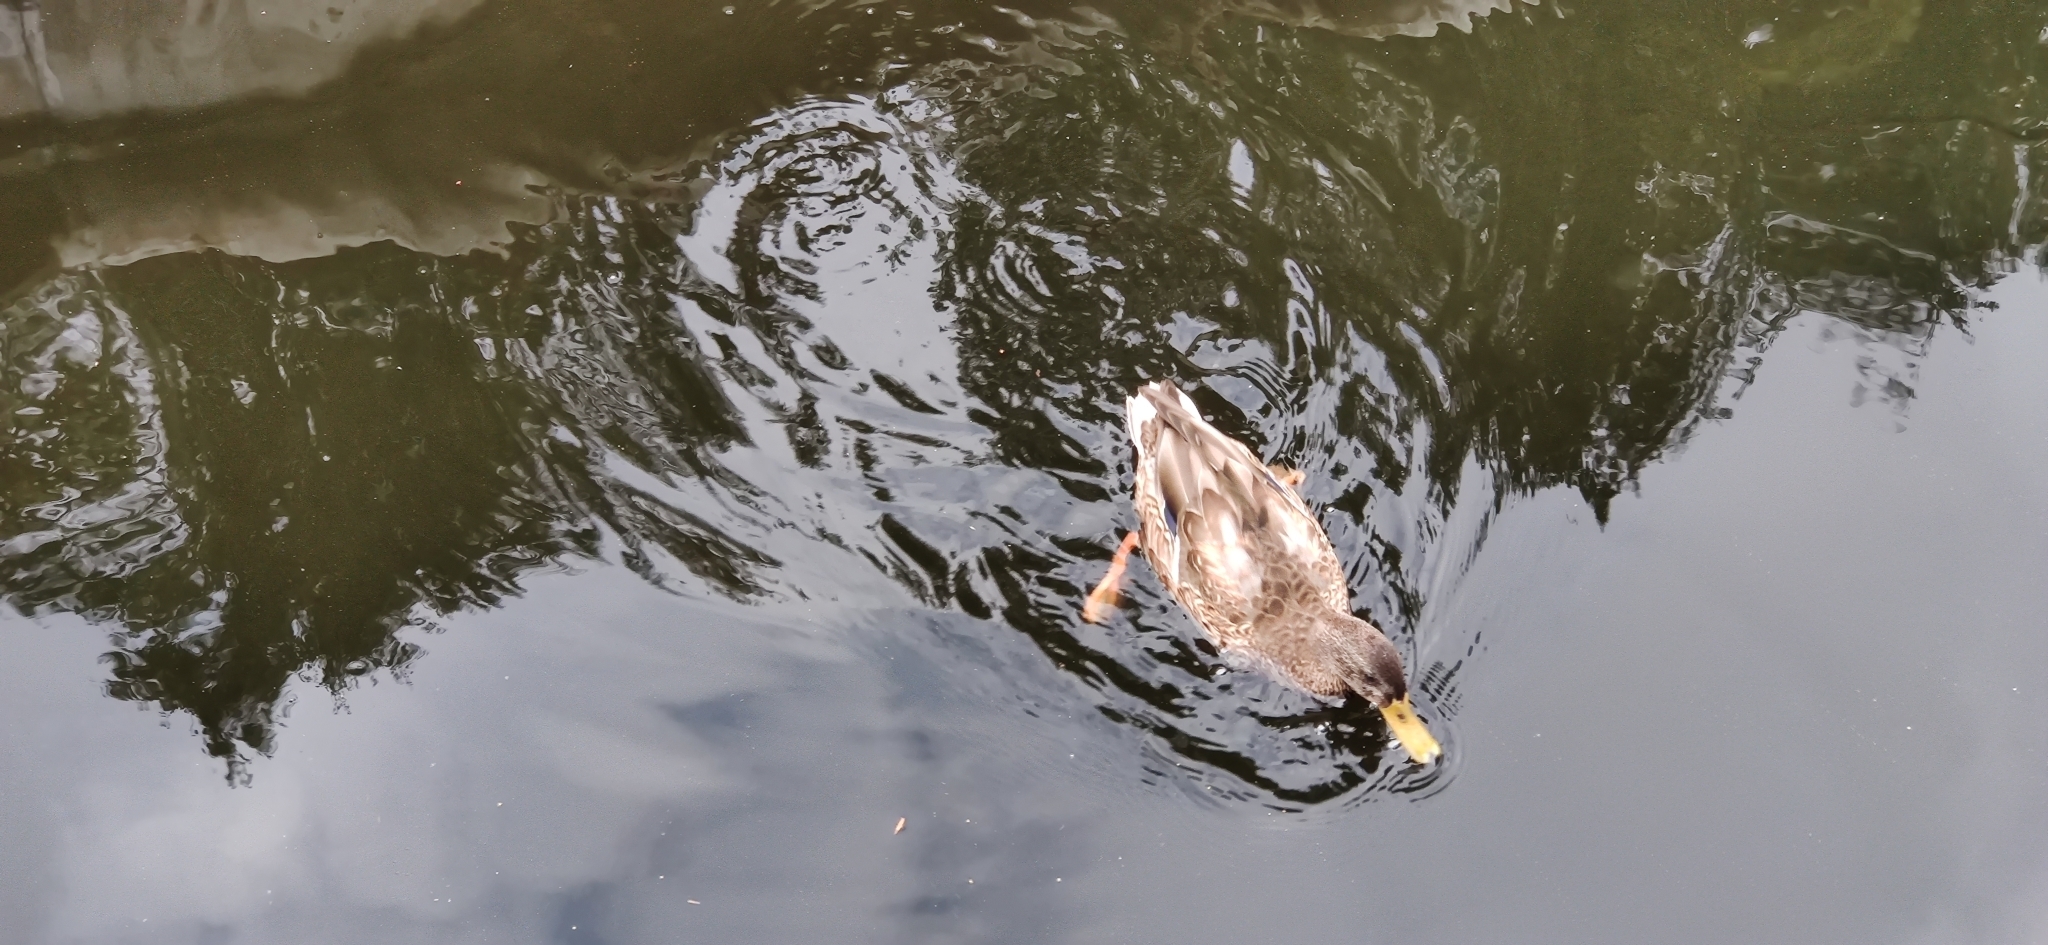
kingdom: Animalia
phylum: Chordata
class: Aves
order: Anseriformes
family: Anatidae
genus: Anas
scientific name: Anas platyrhynchos
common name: Mallard
